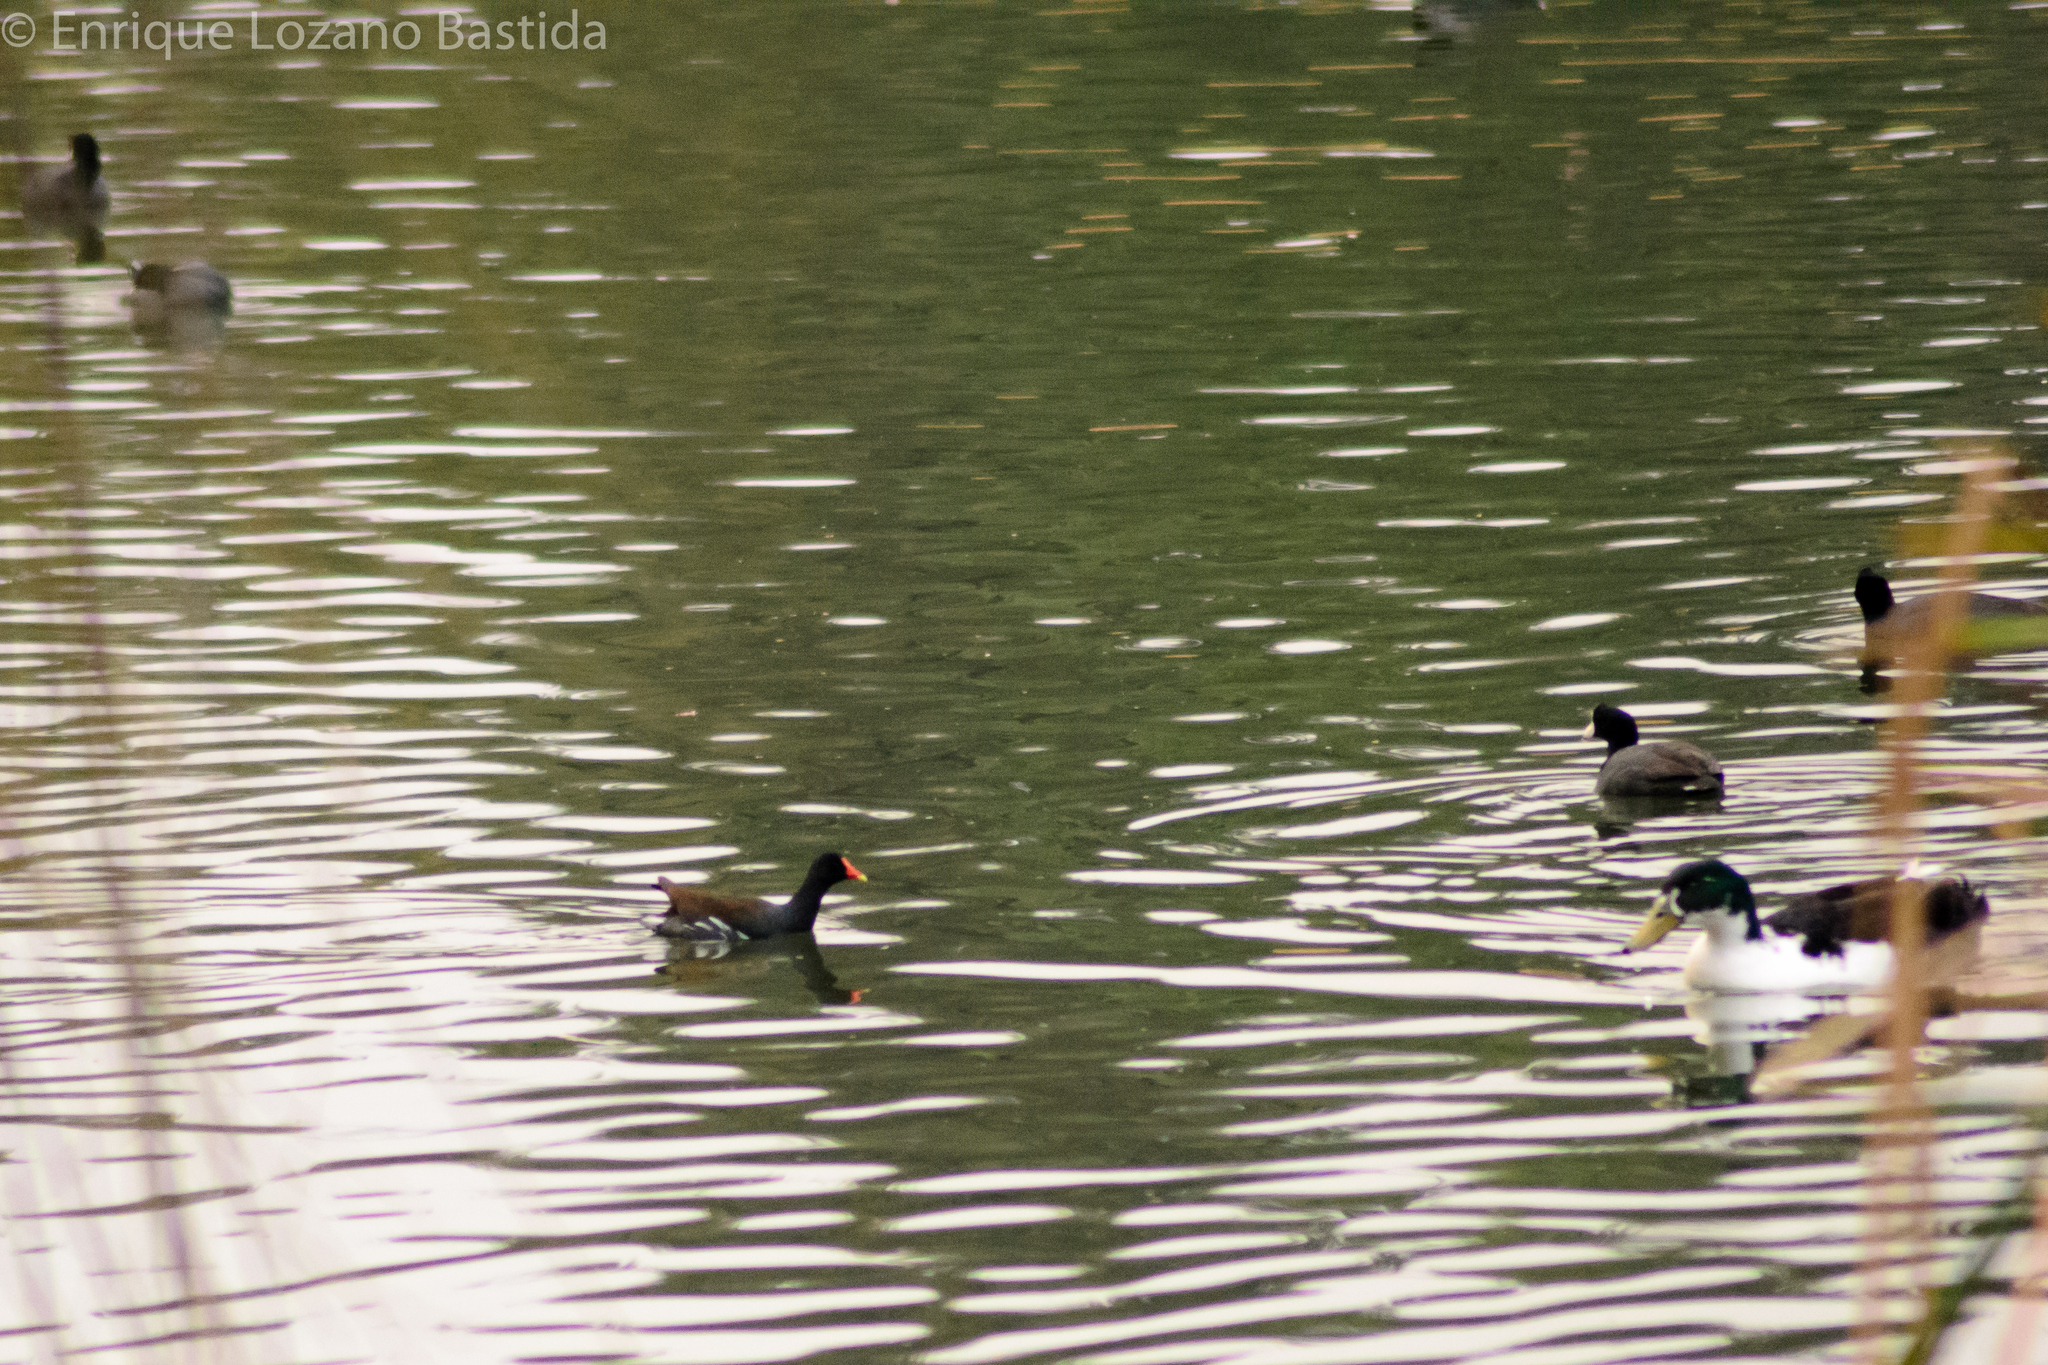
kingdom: Animalia
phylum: Chordata
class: Aves
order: Gruiformes
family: Rallidae
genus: Gallinula
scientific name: Gallinula chloropus
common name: Common moorhen
